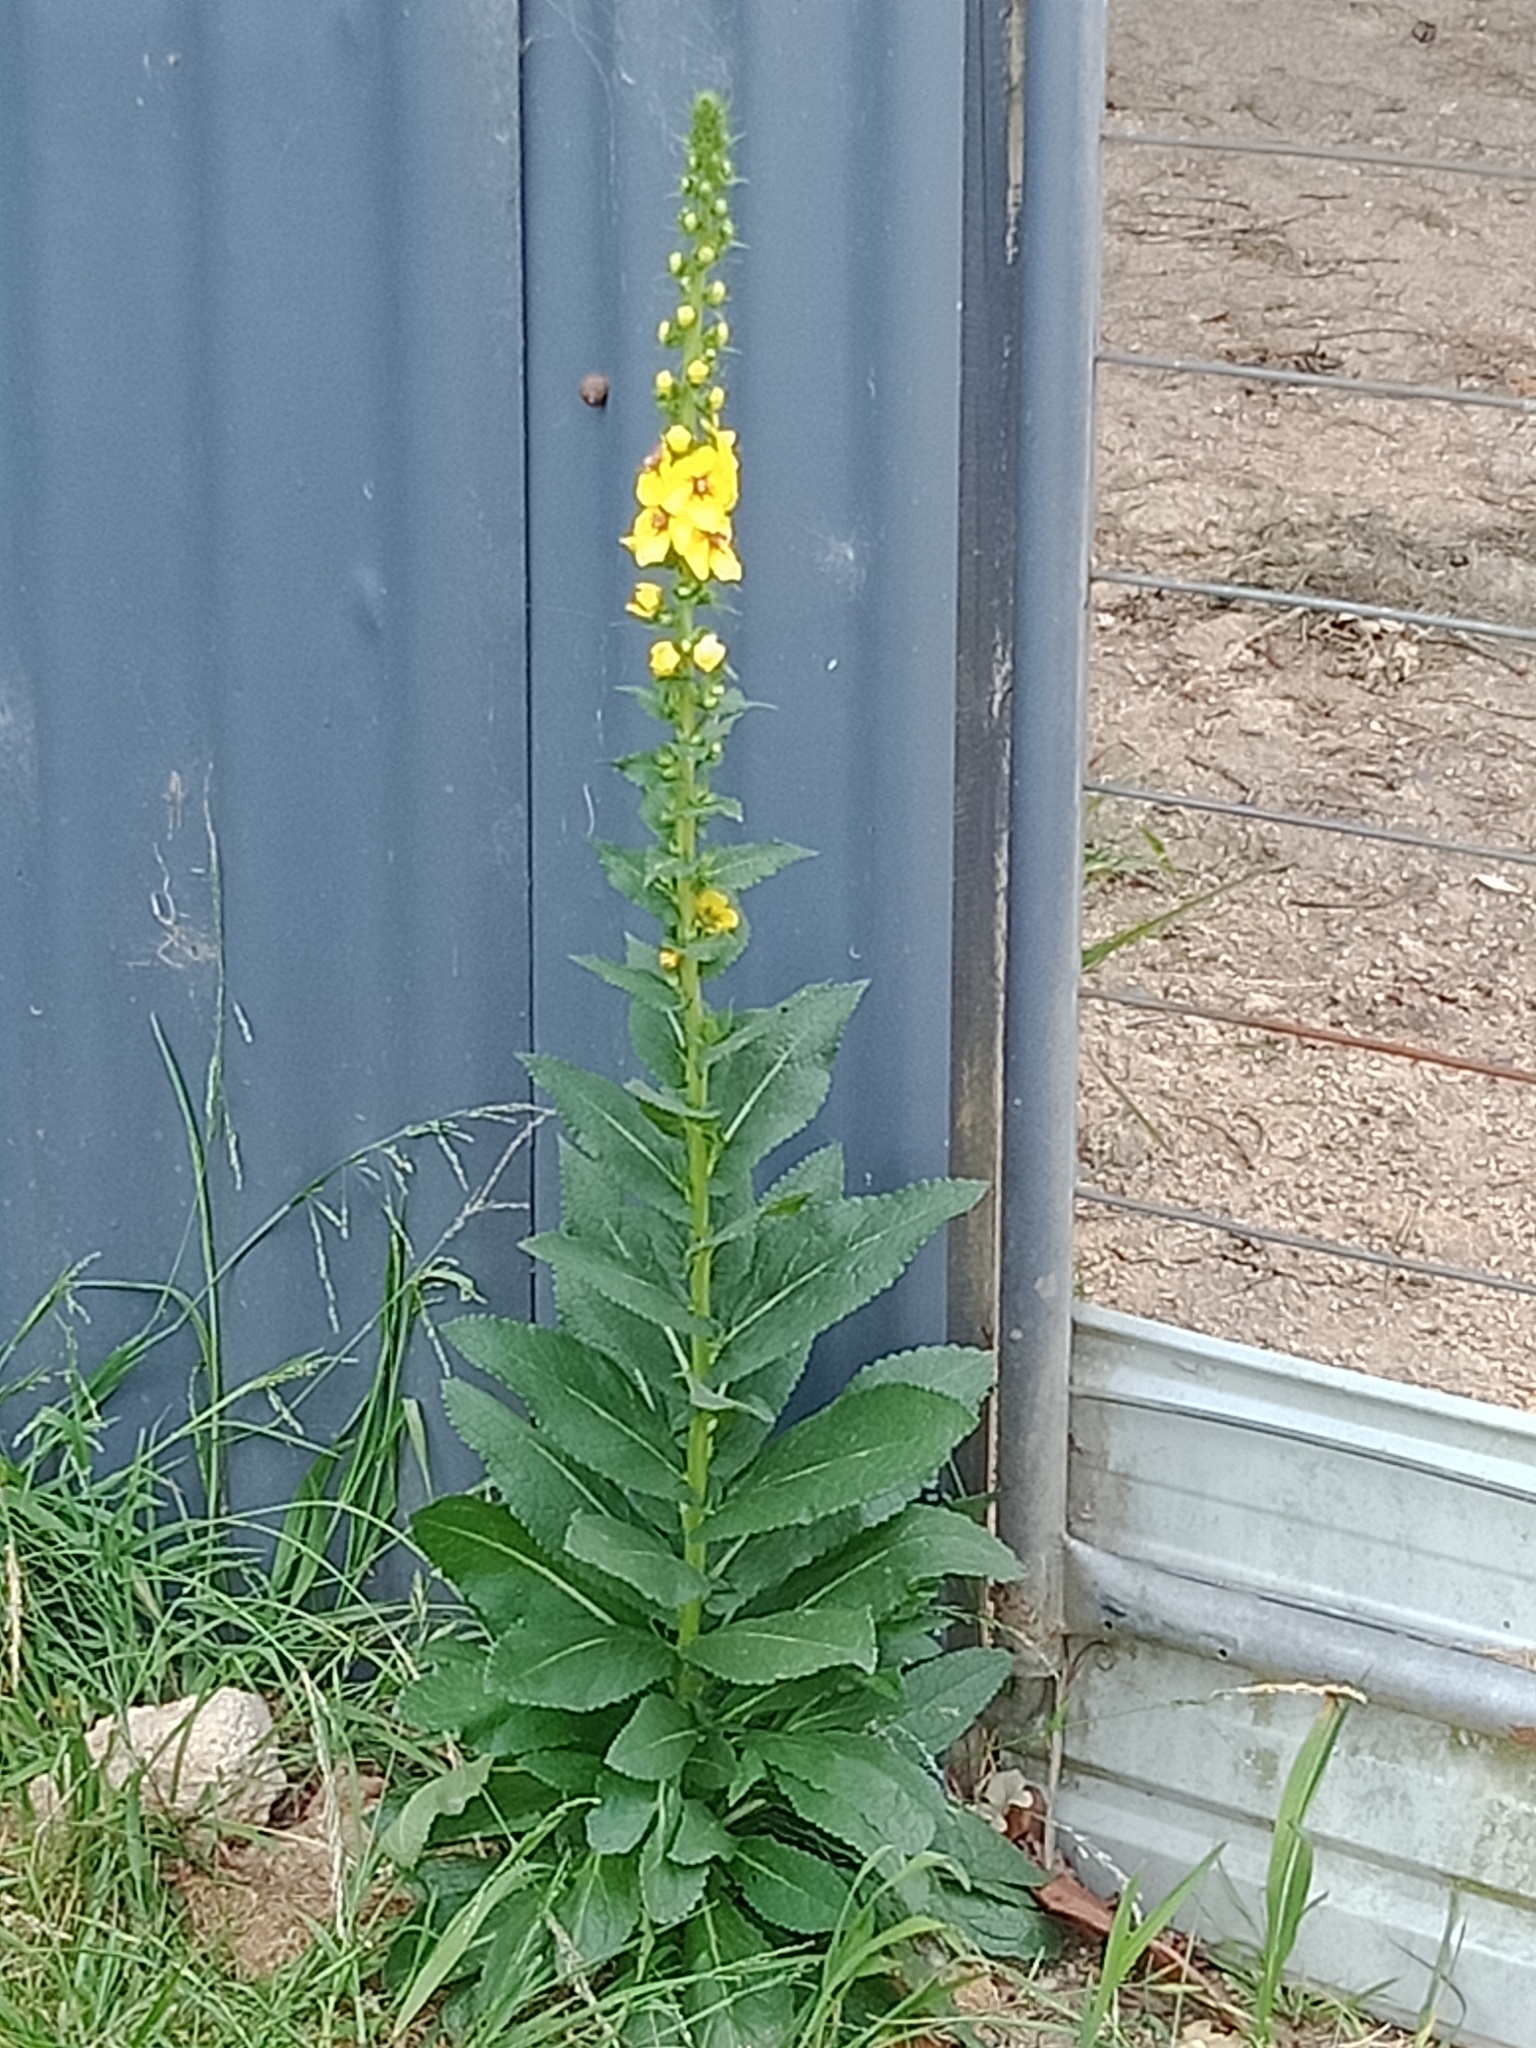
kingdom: Plantae
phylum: Tracheophyta
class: Magnoliopsida
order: Lamiales
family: Scrophulariaceae
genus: Verbascum
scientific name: Verbascum virgatum
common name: Twiggy mullein
